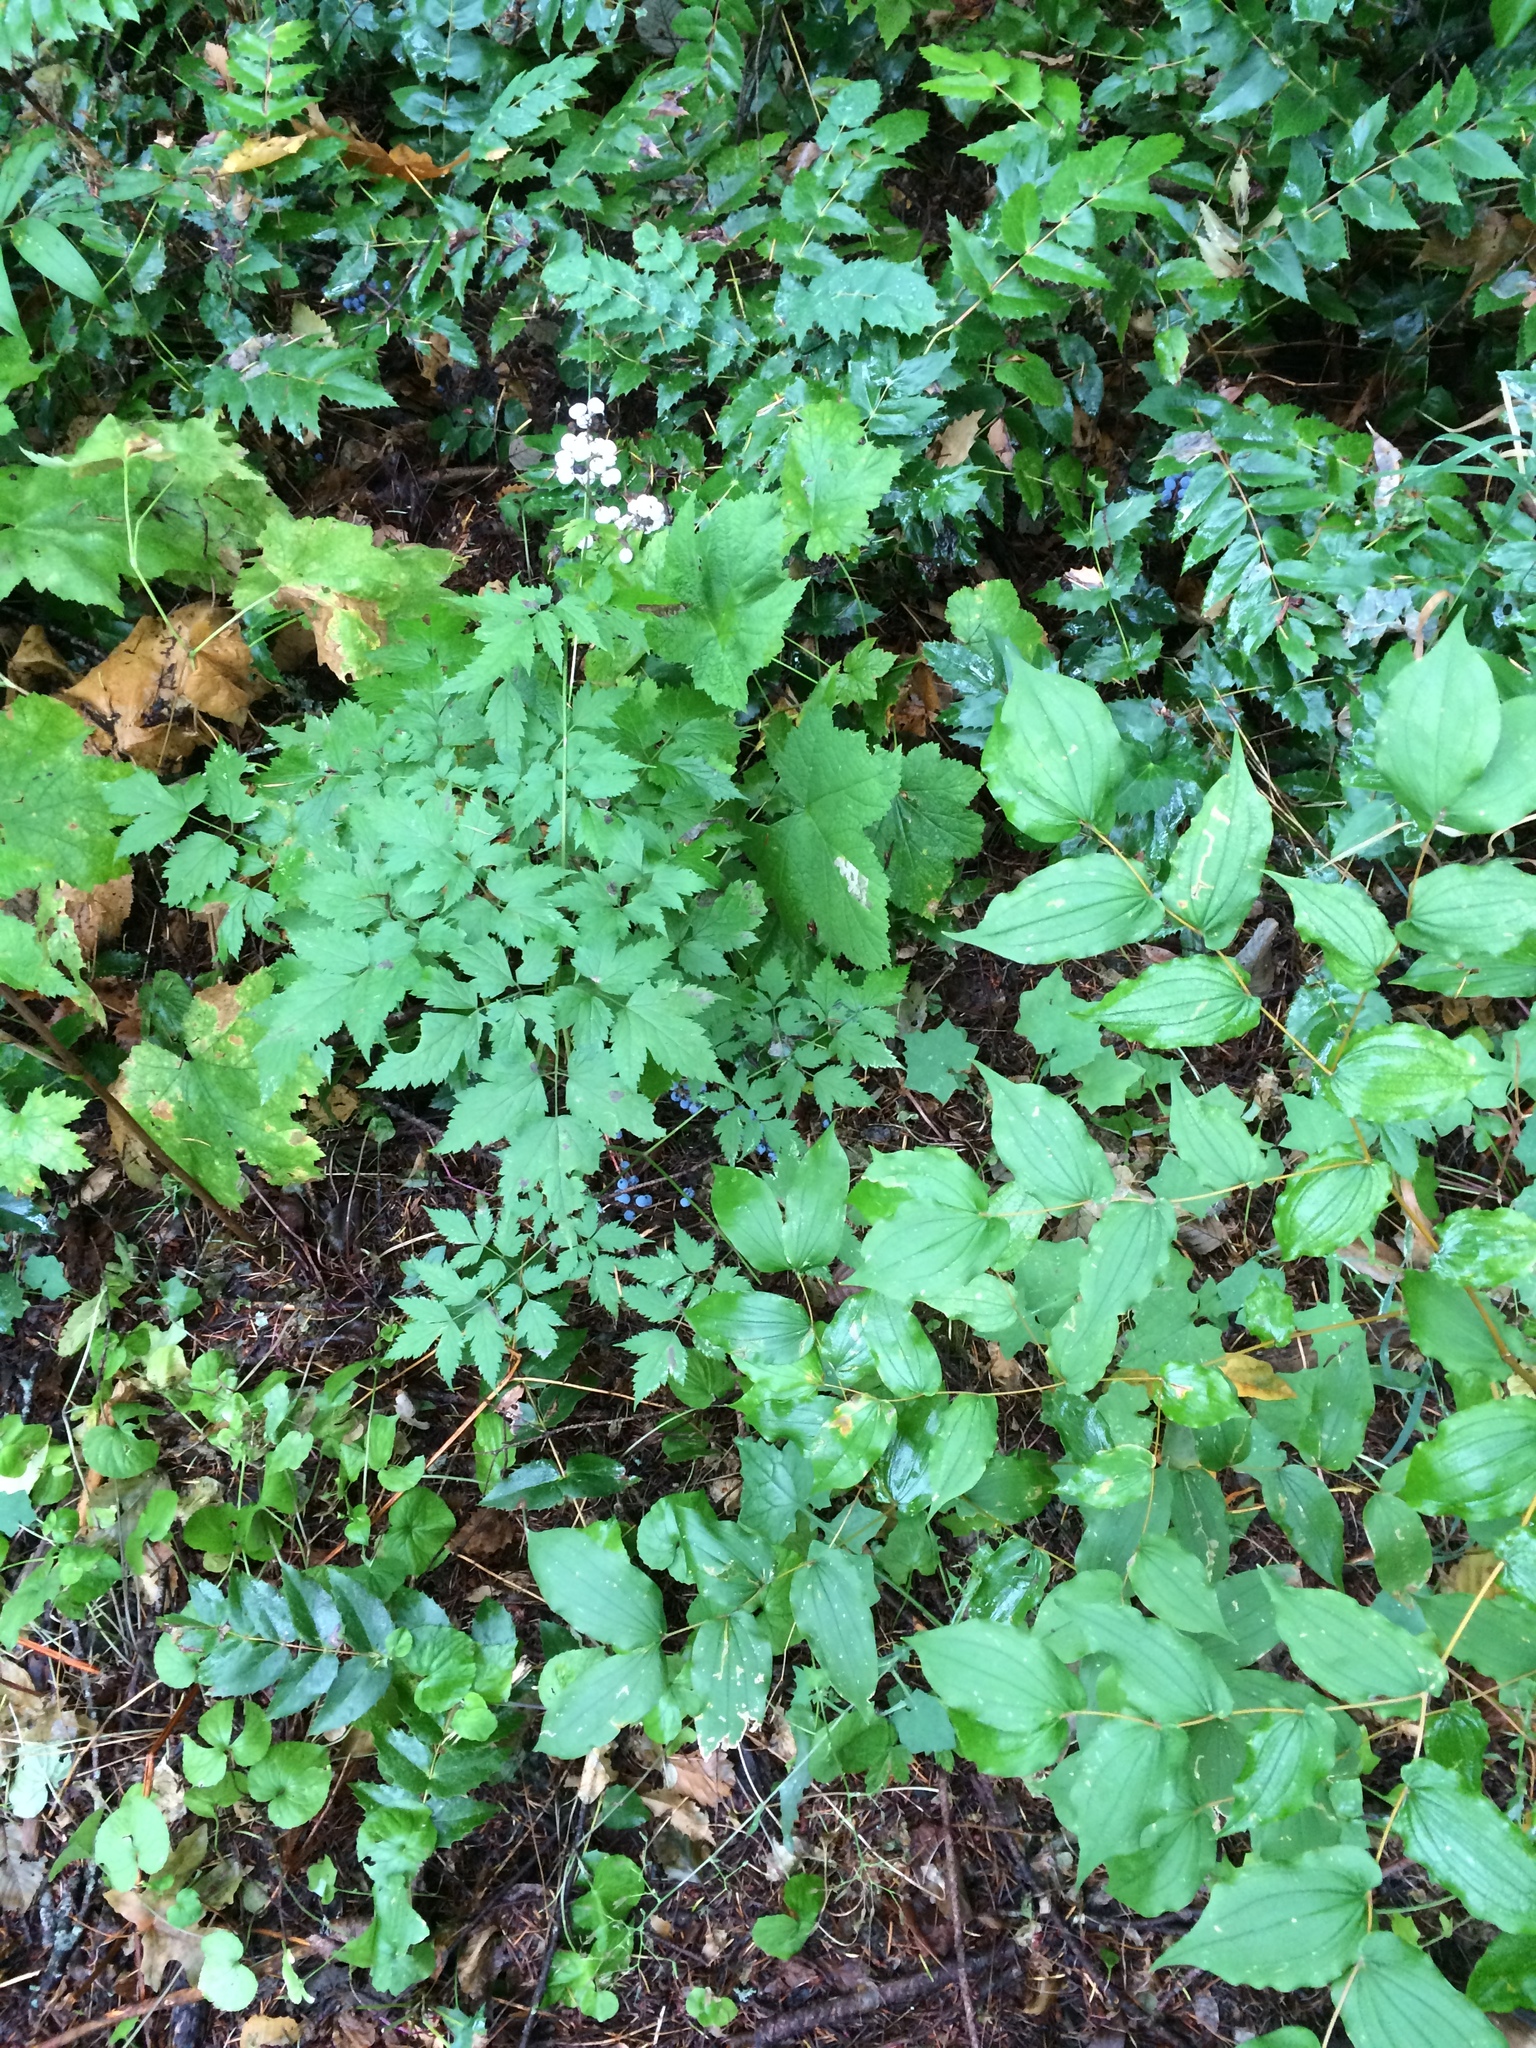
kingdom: Plantae
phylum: Tracheophyta
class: Magnoliopsida
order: Ranunculales
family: Ranunculaceae
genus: Actaea
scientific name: Actaea rubra
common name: Red baneberry
